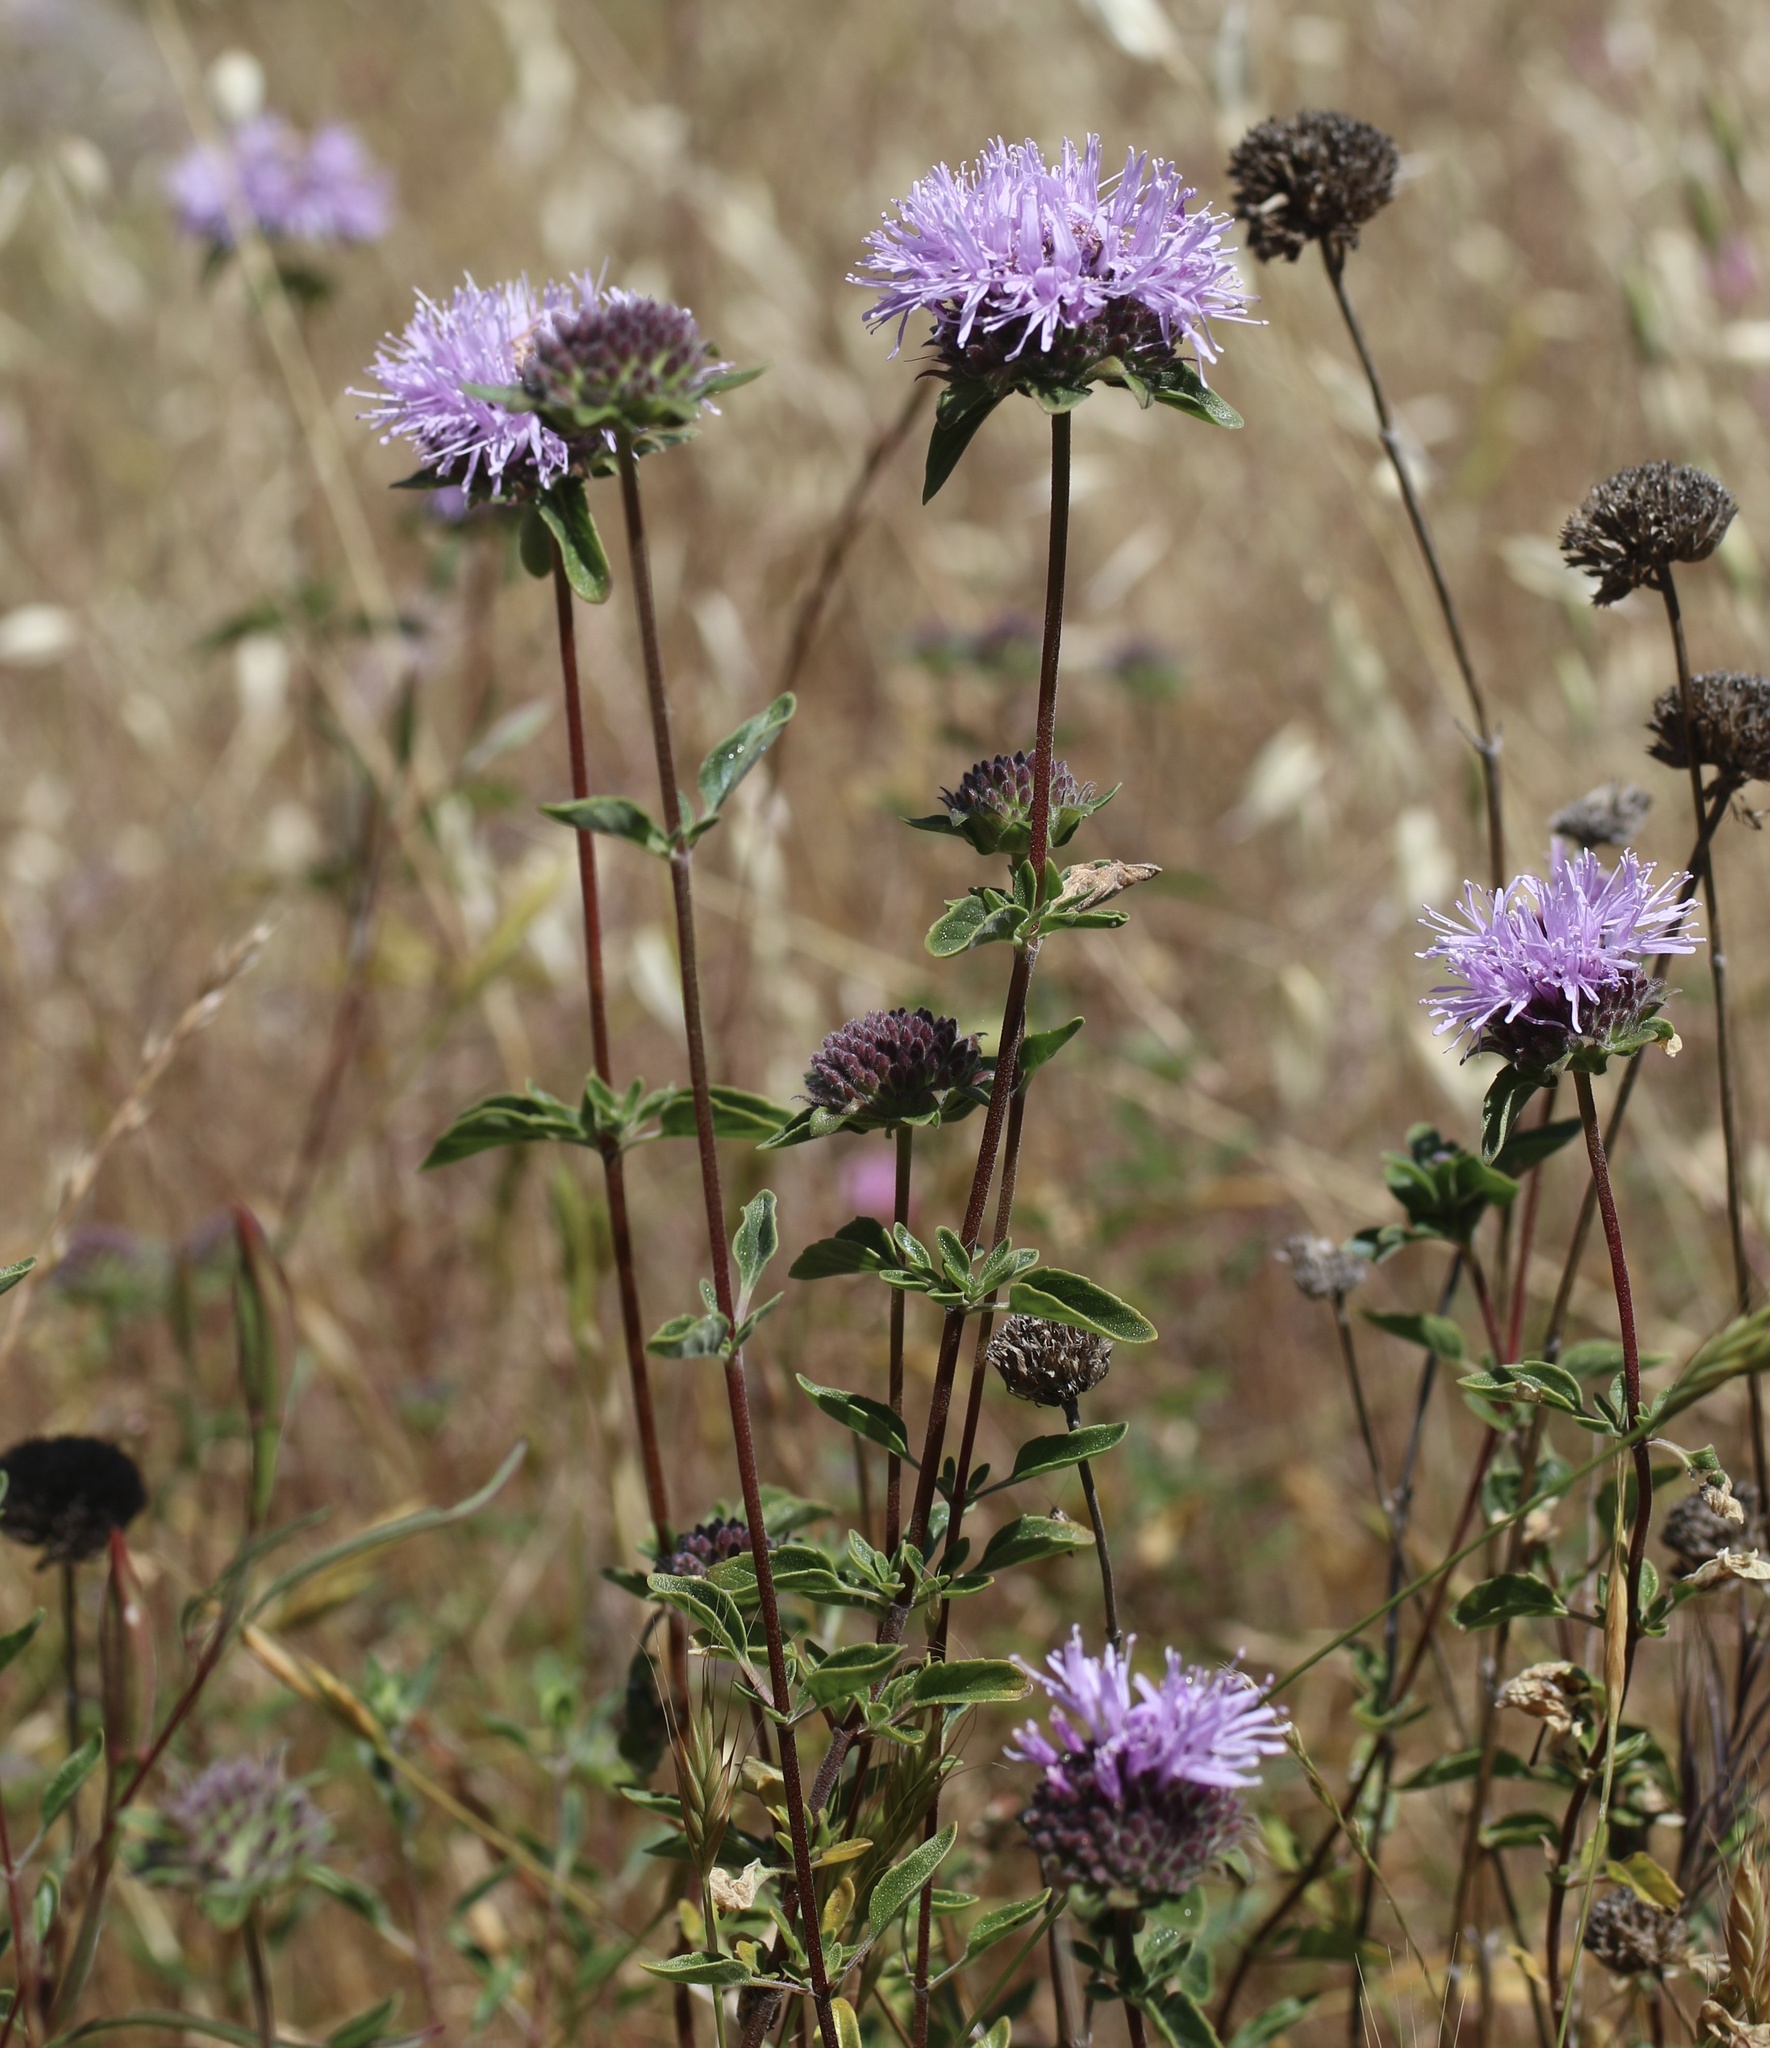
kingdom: Plantae
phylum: Tracheophyta
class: Magnoliopsida
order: Lamiales
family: Lamiaceae
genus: Monardella
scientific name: Monardella odoratissima
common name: Pacific monardella
